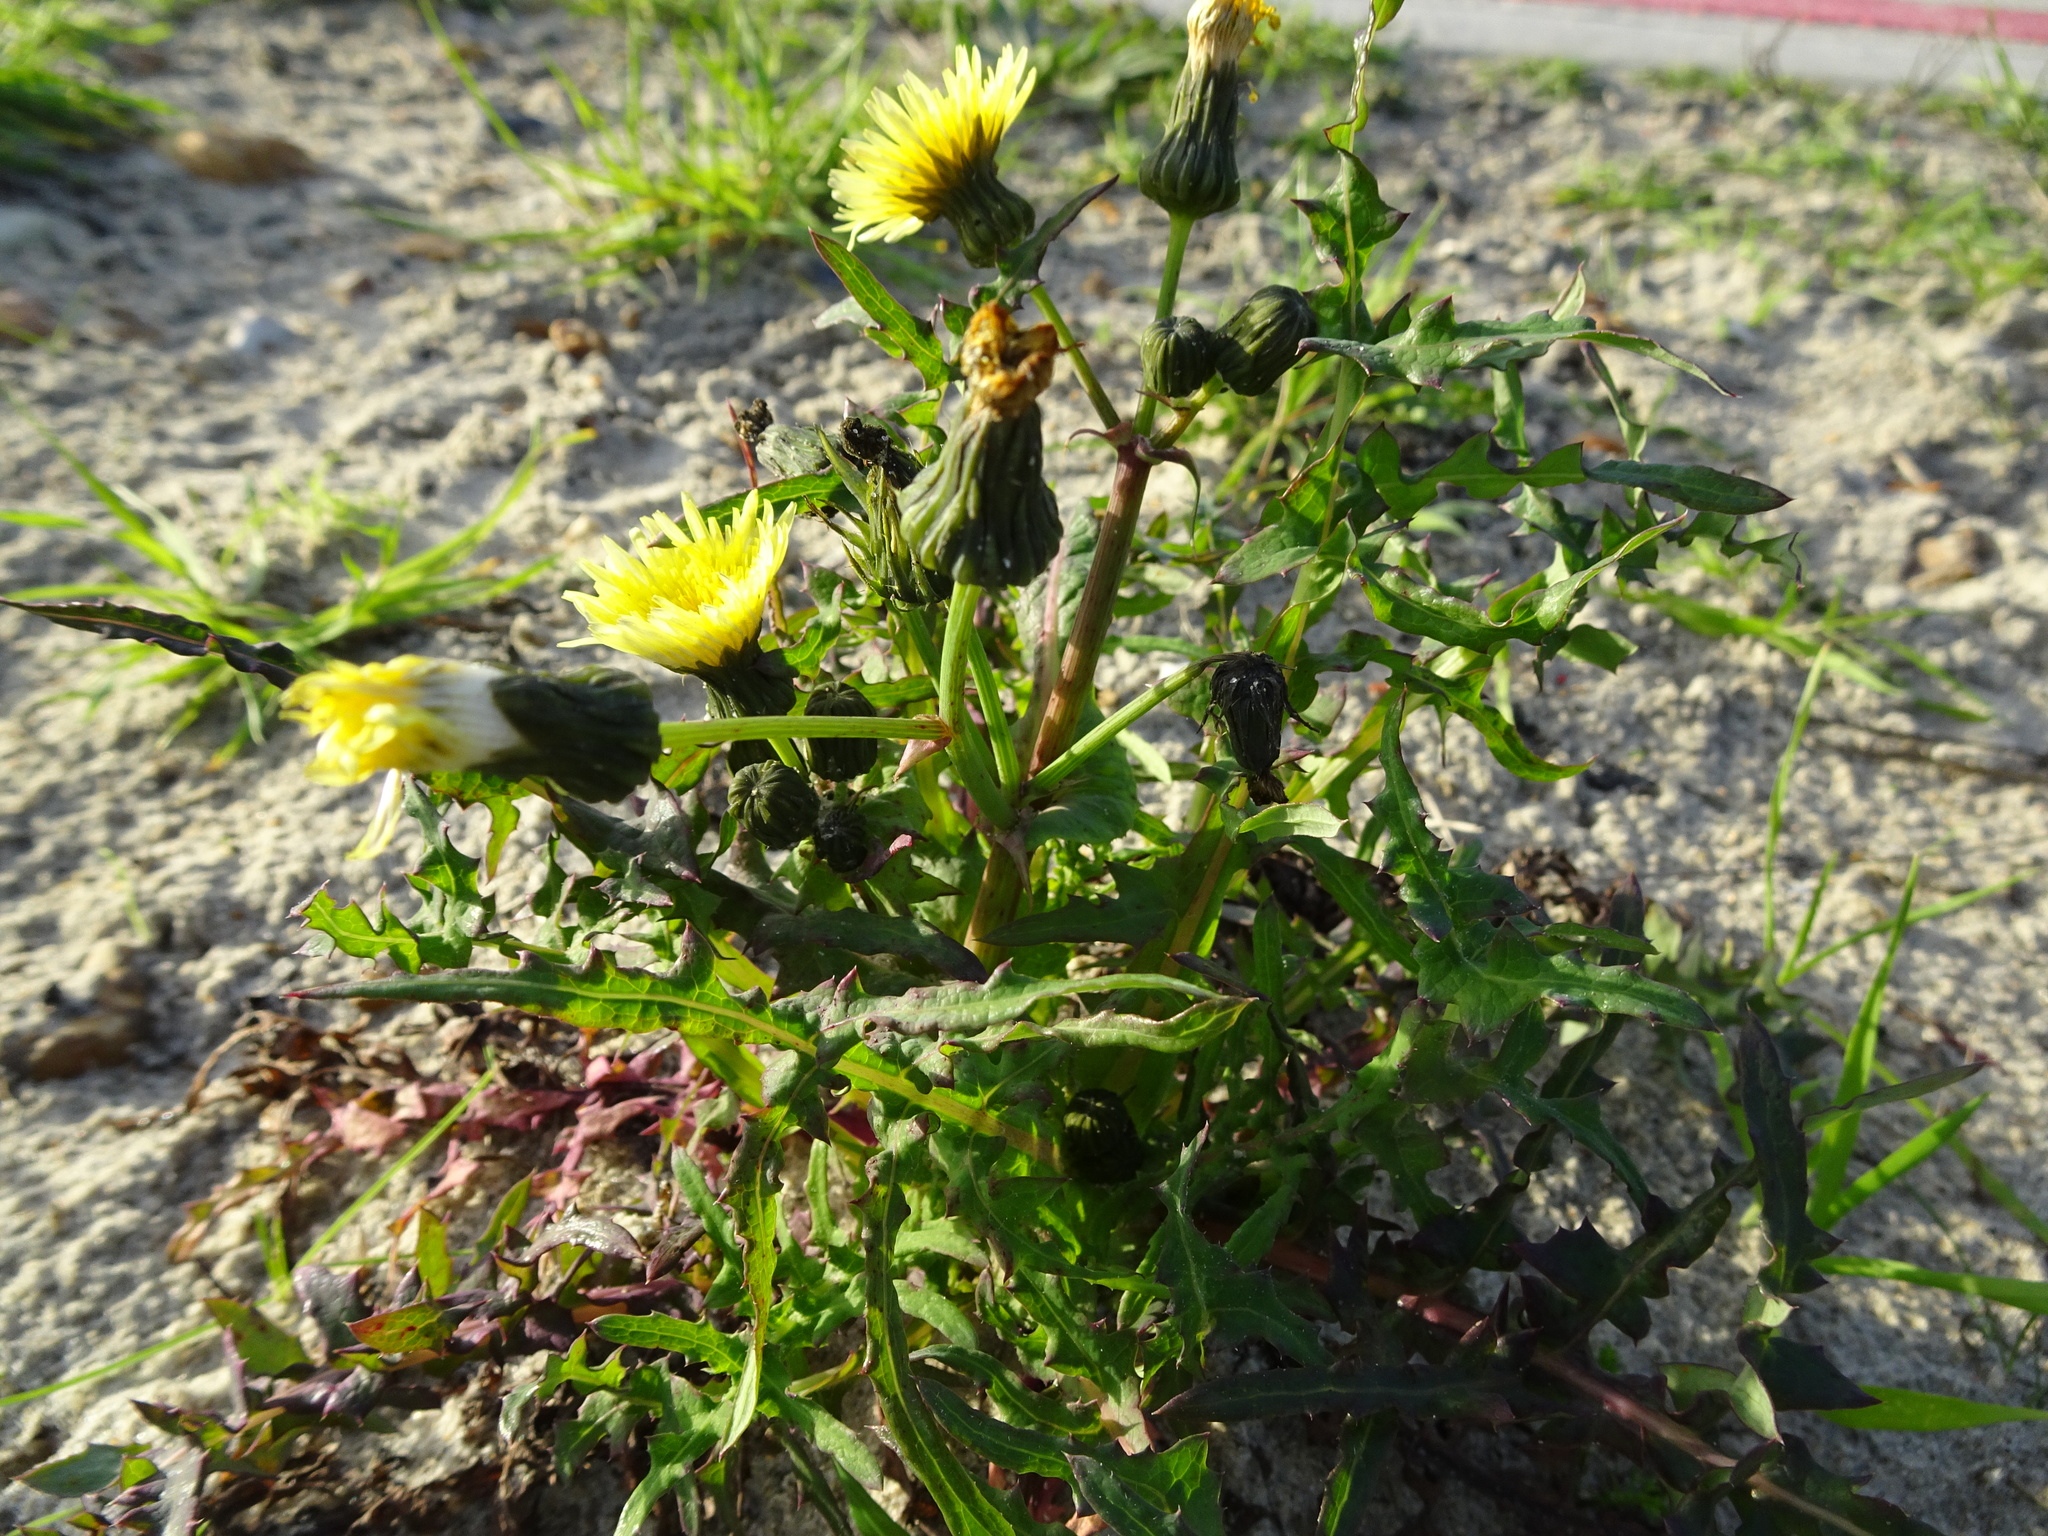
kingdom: Plantae
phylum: Tracheophyta
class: Magnoliopsida
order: Asterales
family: Asteraceae
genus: Sonchus
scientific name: Sonchus oleraceus
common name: Common sowthistle
